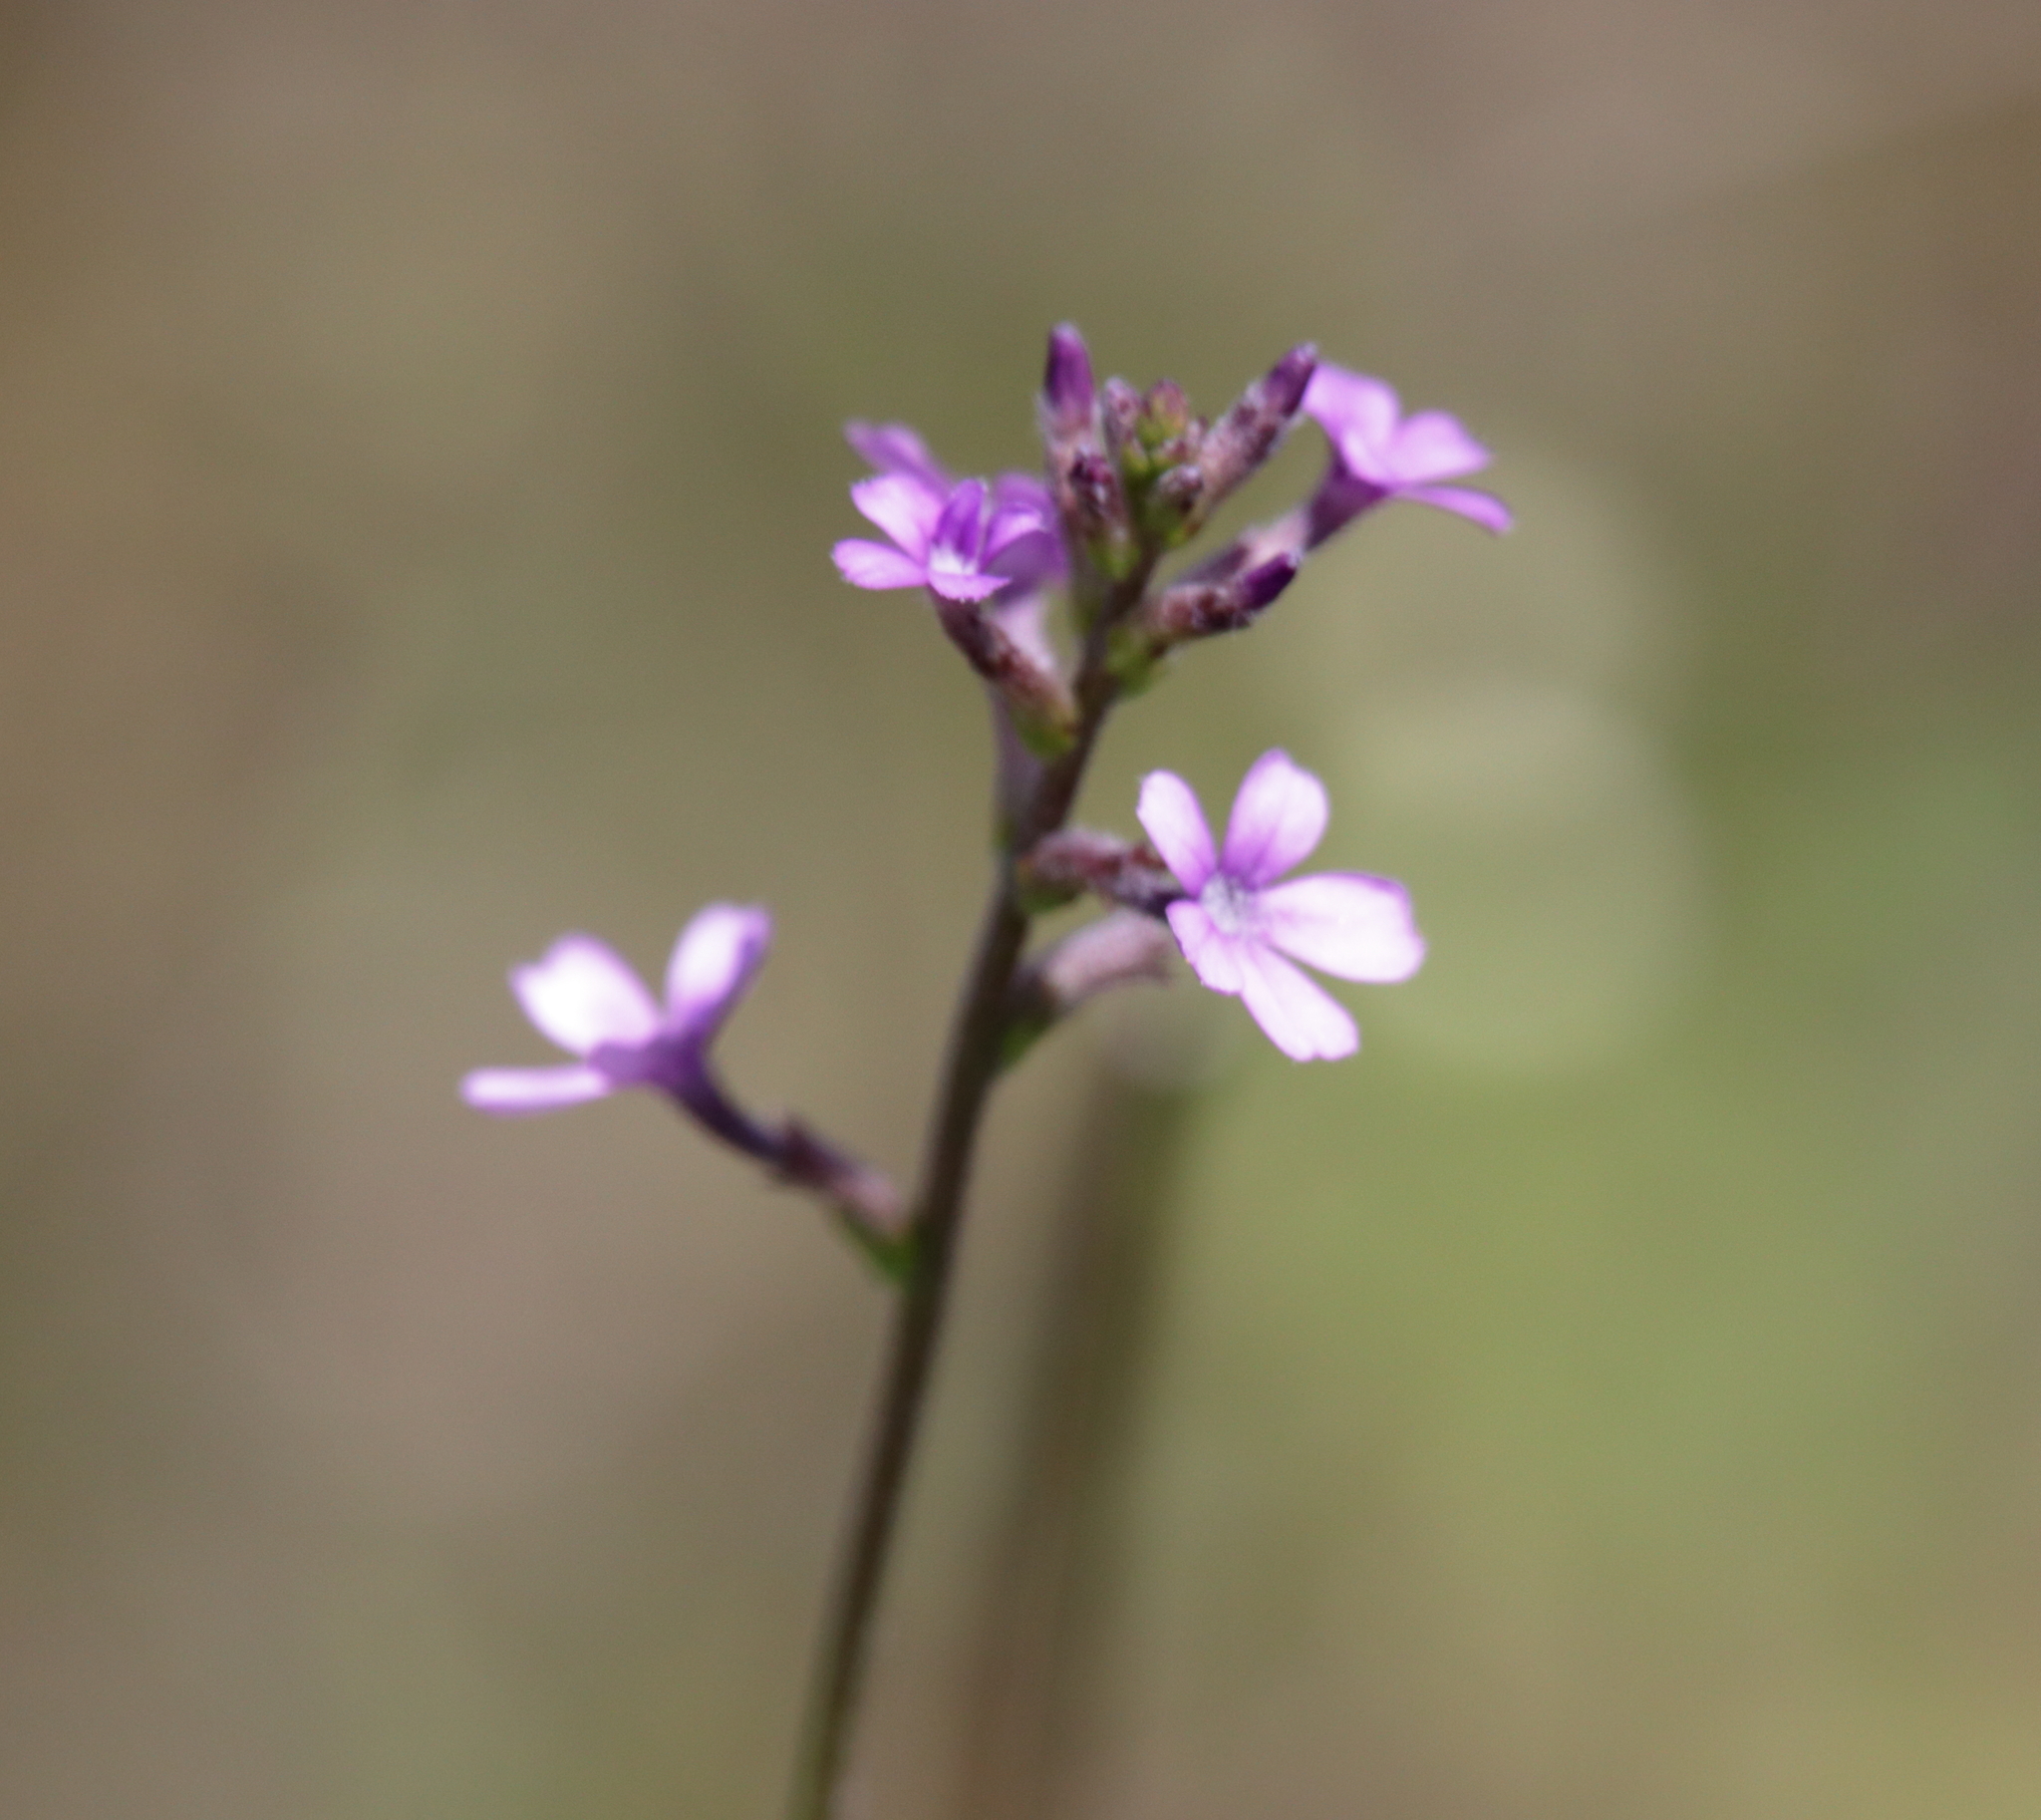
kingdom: Plantae
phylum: Tracheophyta
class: Magnoliopsida
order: Lamiales
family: Orobanchaceae
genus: Buchnera
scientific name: Buchnera floridana
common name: Florida bluehearts
